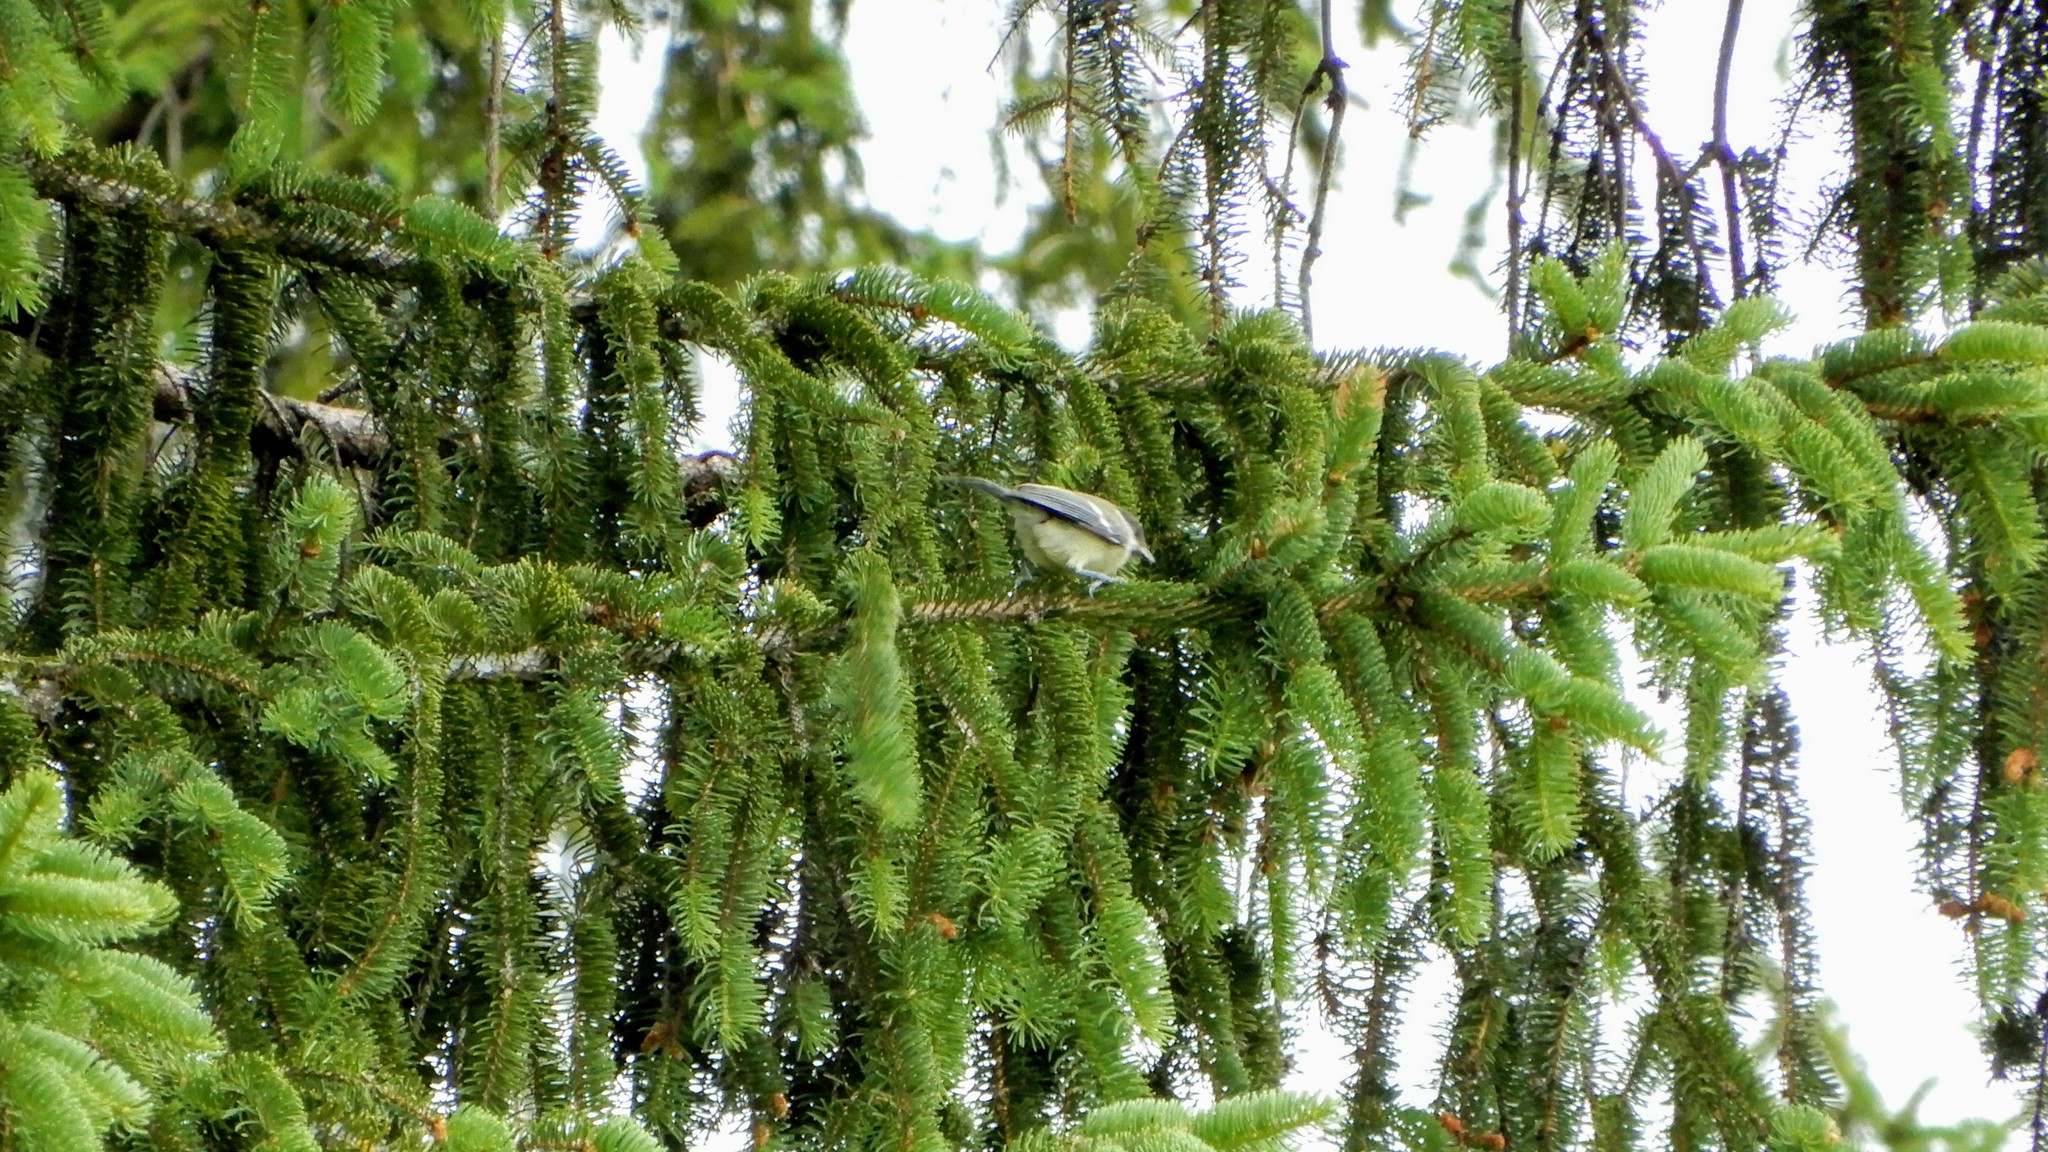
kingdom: Animalia
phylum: Chordata
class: Aves
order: Passeriformes
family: Paridae
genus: Parus
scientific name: Parus major
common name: Great tit
